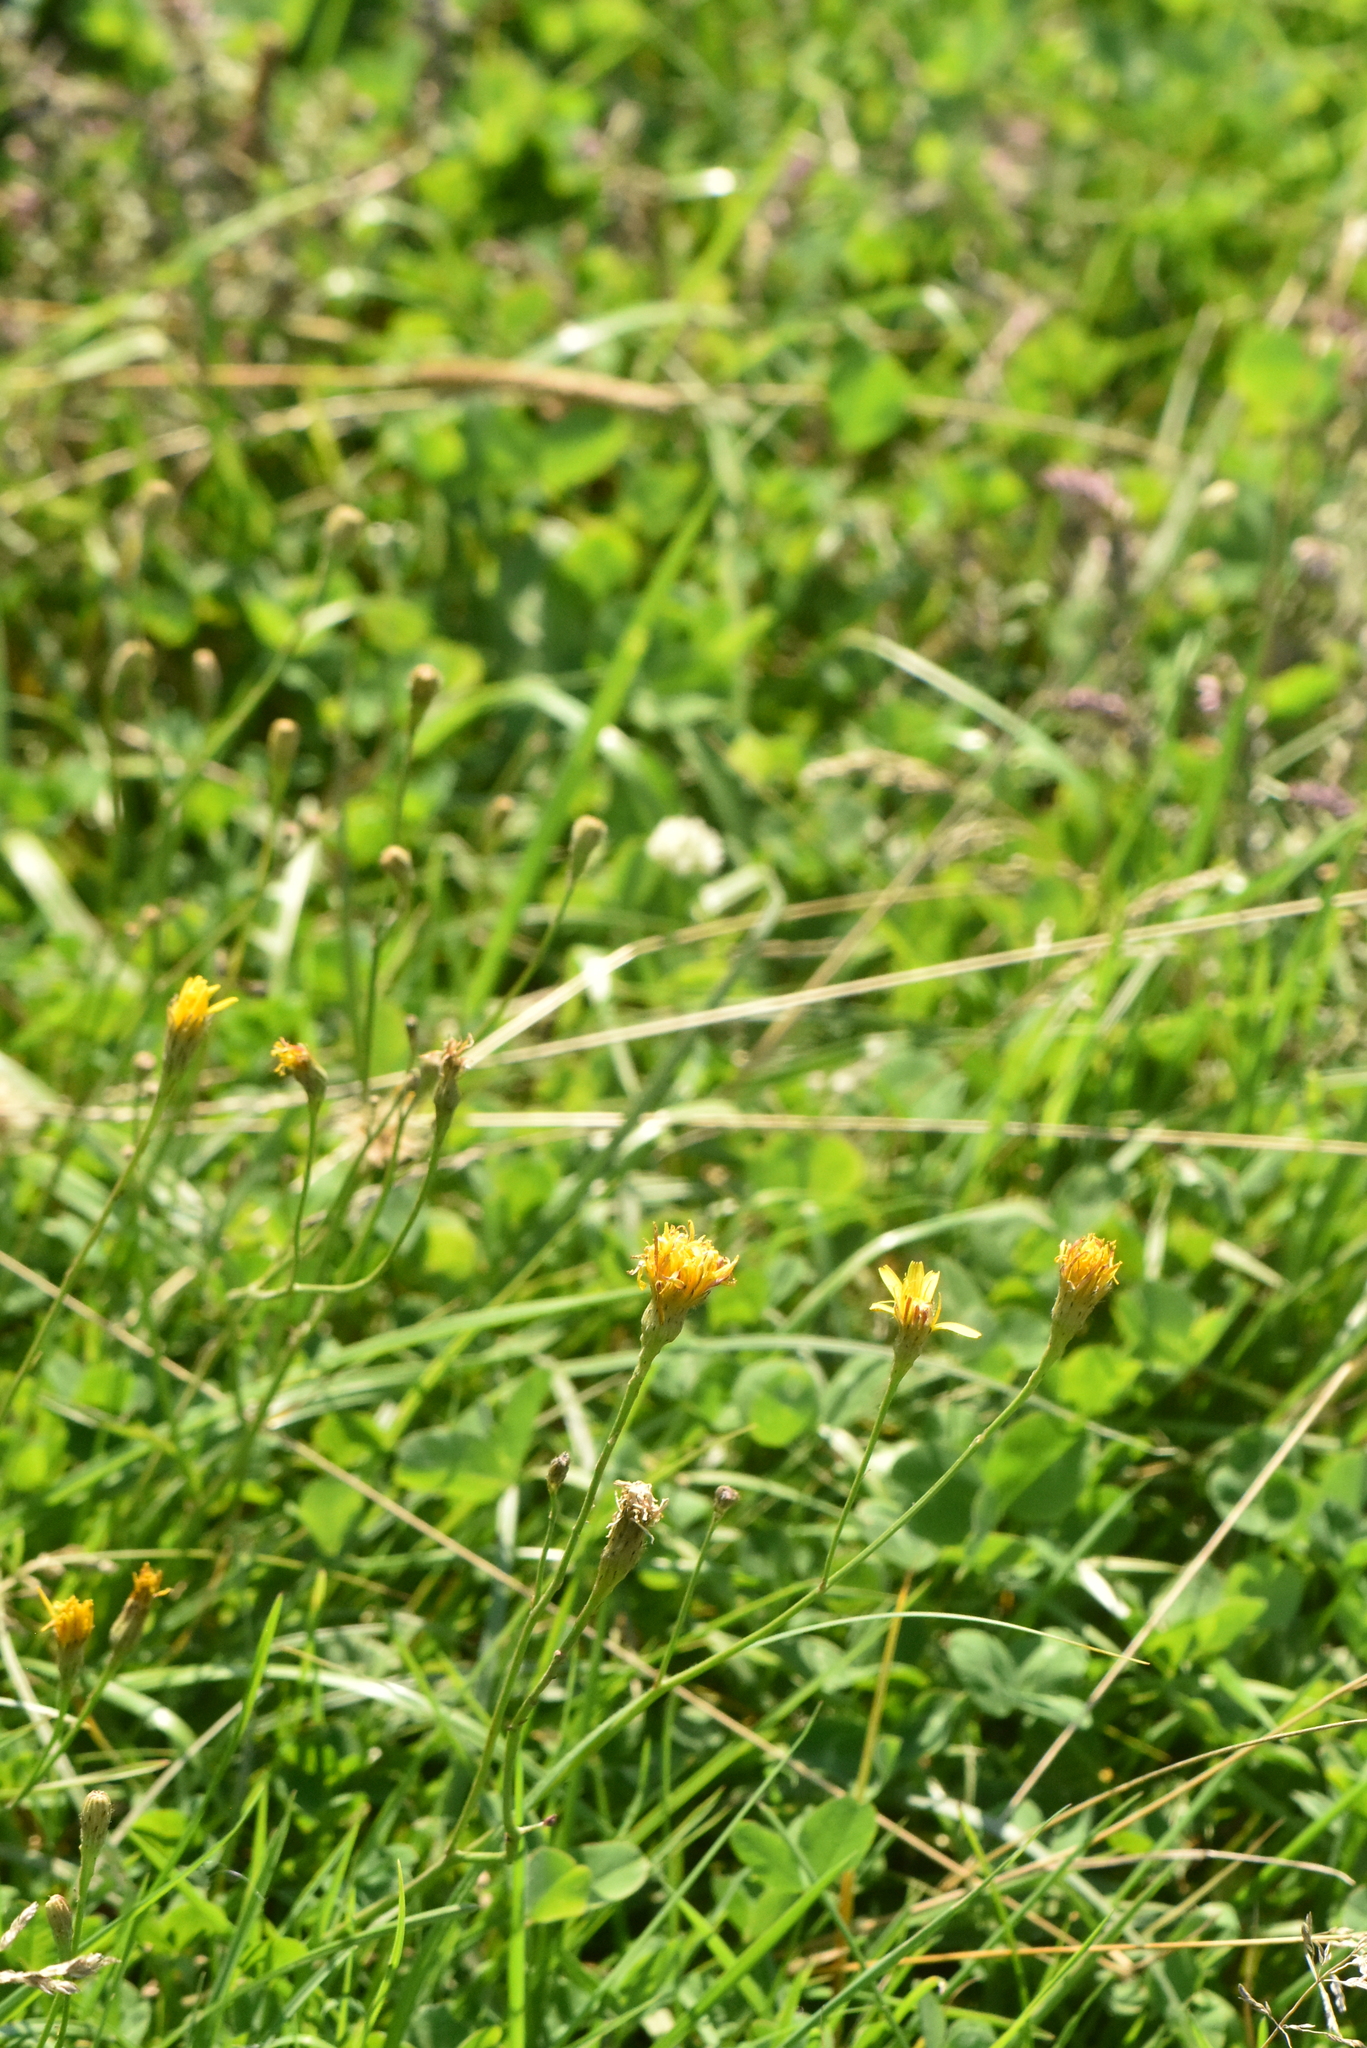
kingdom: Plantae
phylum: Tracheophyta
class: Magnoliopsida
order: Asterales
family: Asteraceae
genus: Scorzoneroides
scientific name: Scorzoneroides autumnalis
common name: Autumn hawkbit
